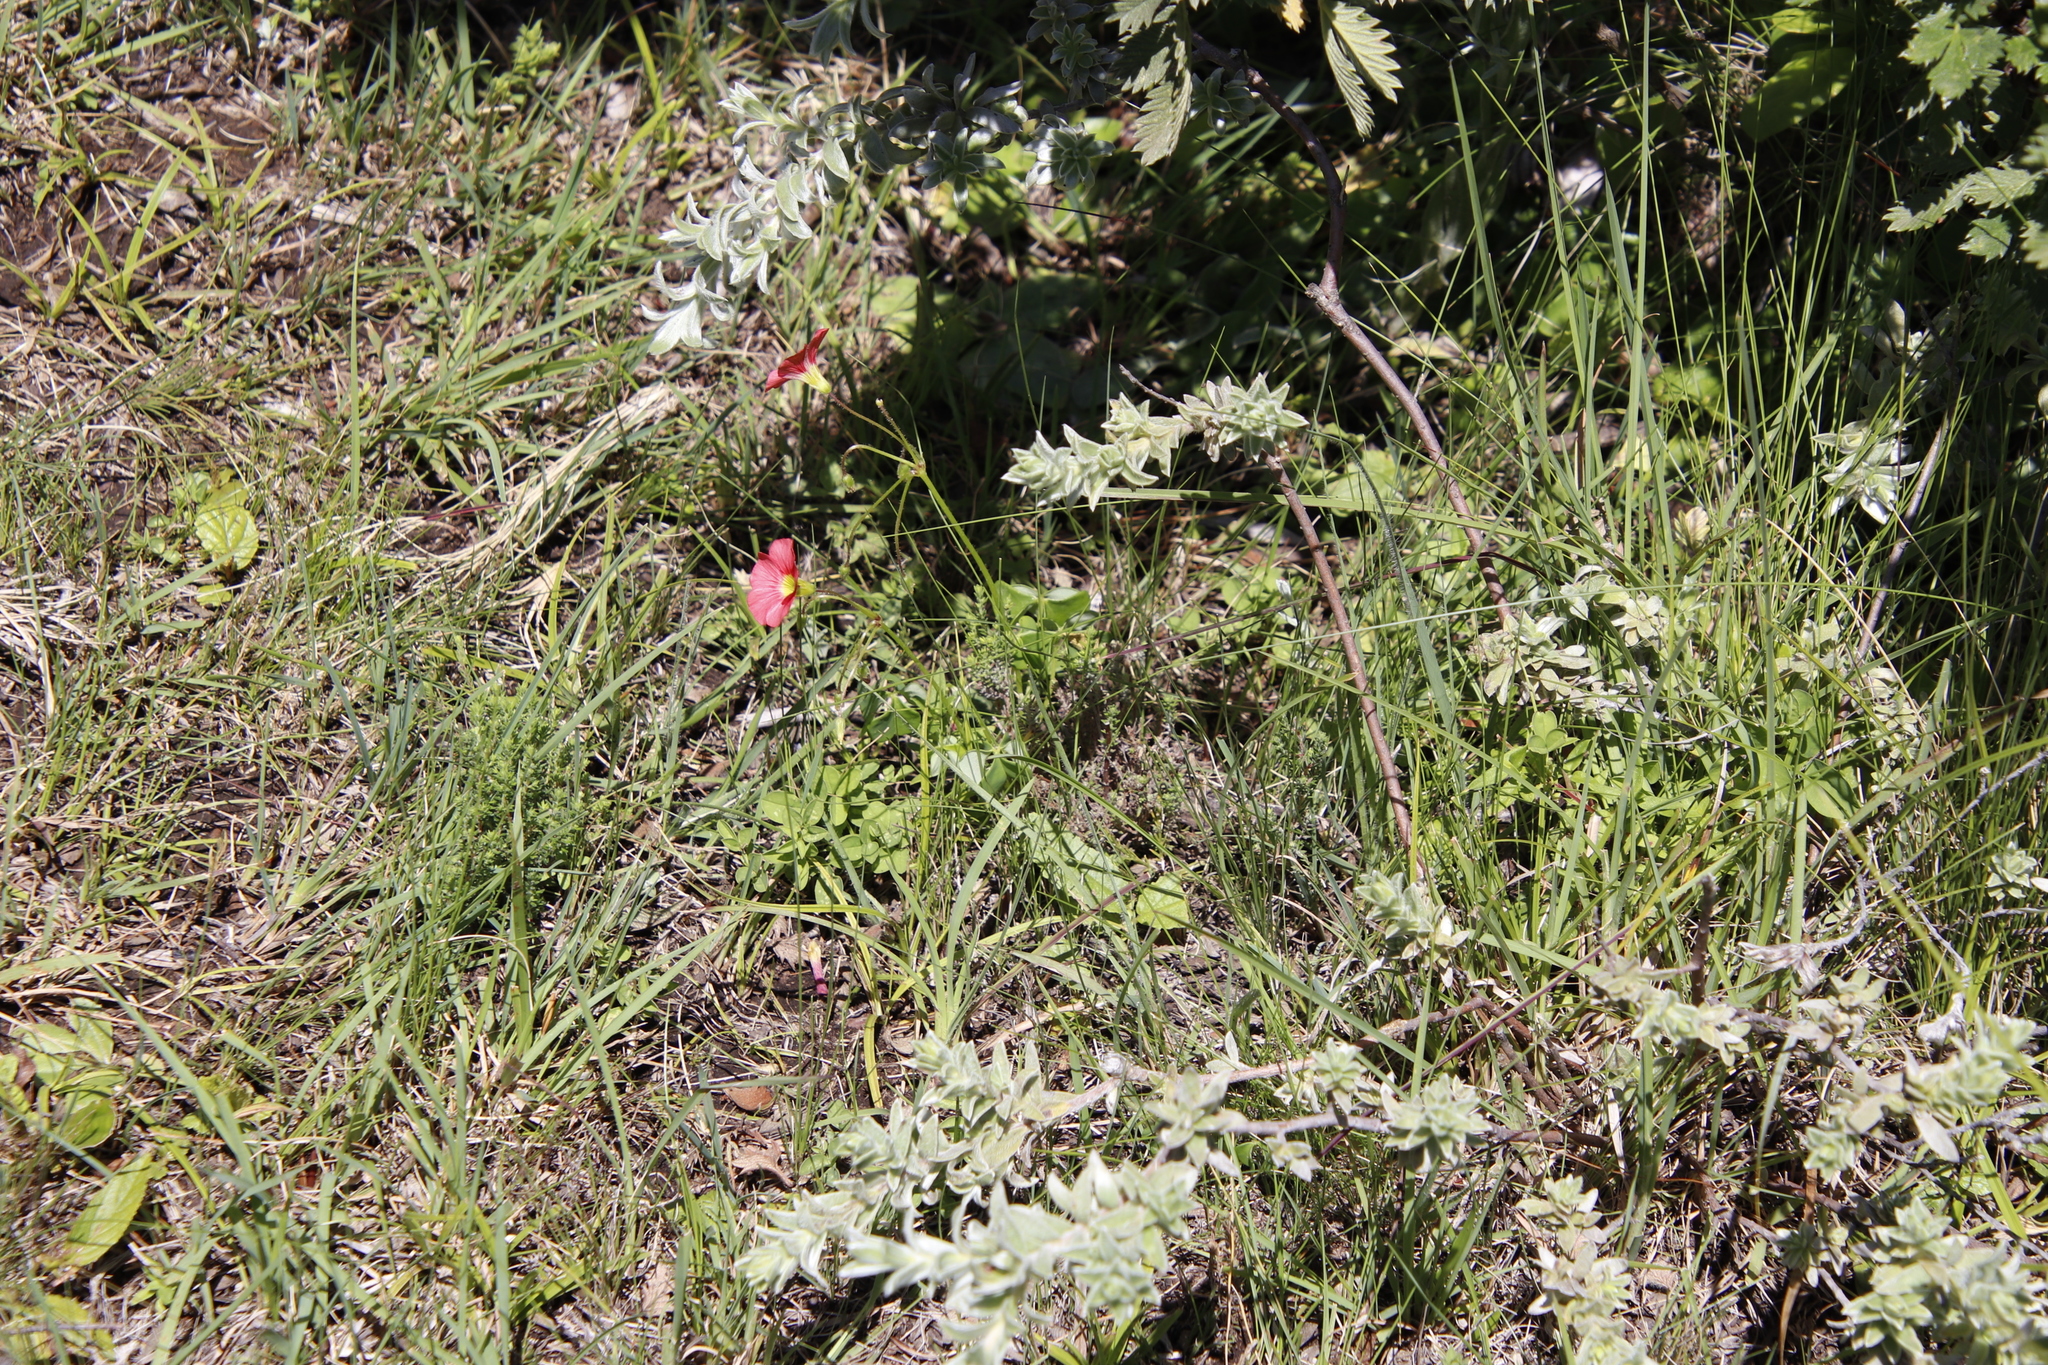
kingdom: Plantae
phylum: Tracheophyta
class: Magnoliopsida
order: Oxalidales
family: Oxalidaceae
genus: Oxalis
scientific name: Oxalis bowiei
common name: Bowie's wood-sorrel
